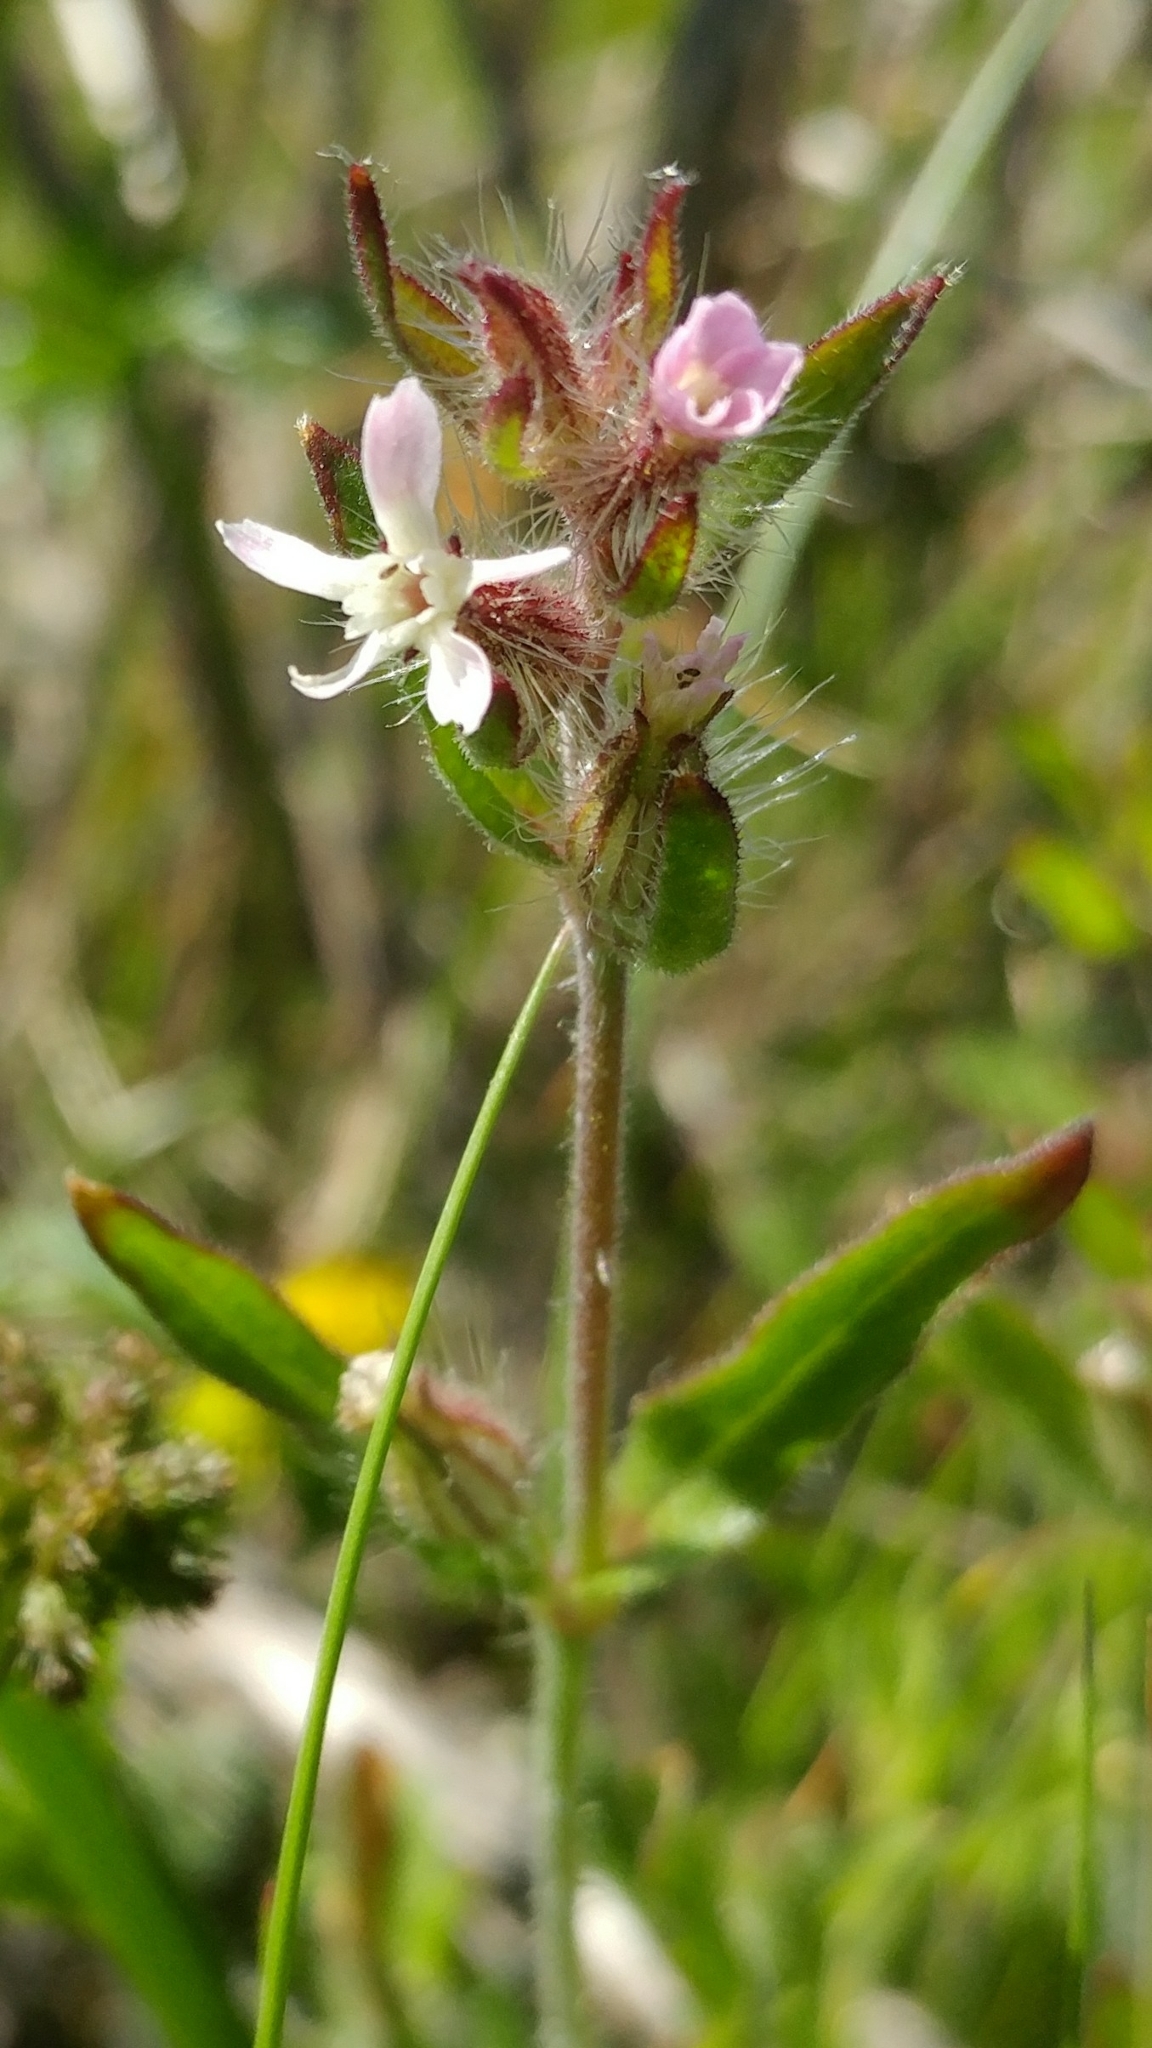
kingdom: Plantae
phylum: Tracheophyta
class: Magnoliopsida
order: Caryophyllales
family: Caryophyllaceae
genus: Silene
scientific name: Silene gallica
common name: Small-flowered catchfly
